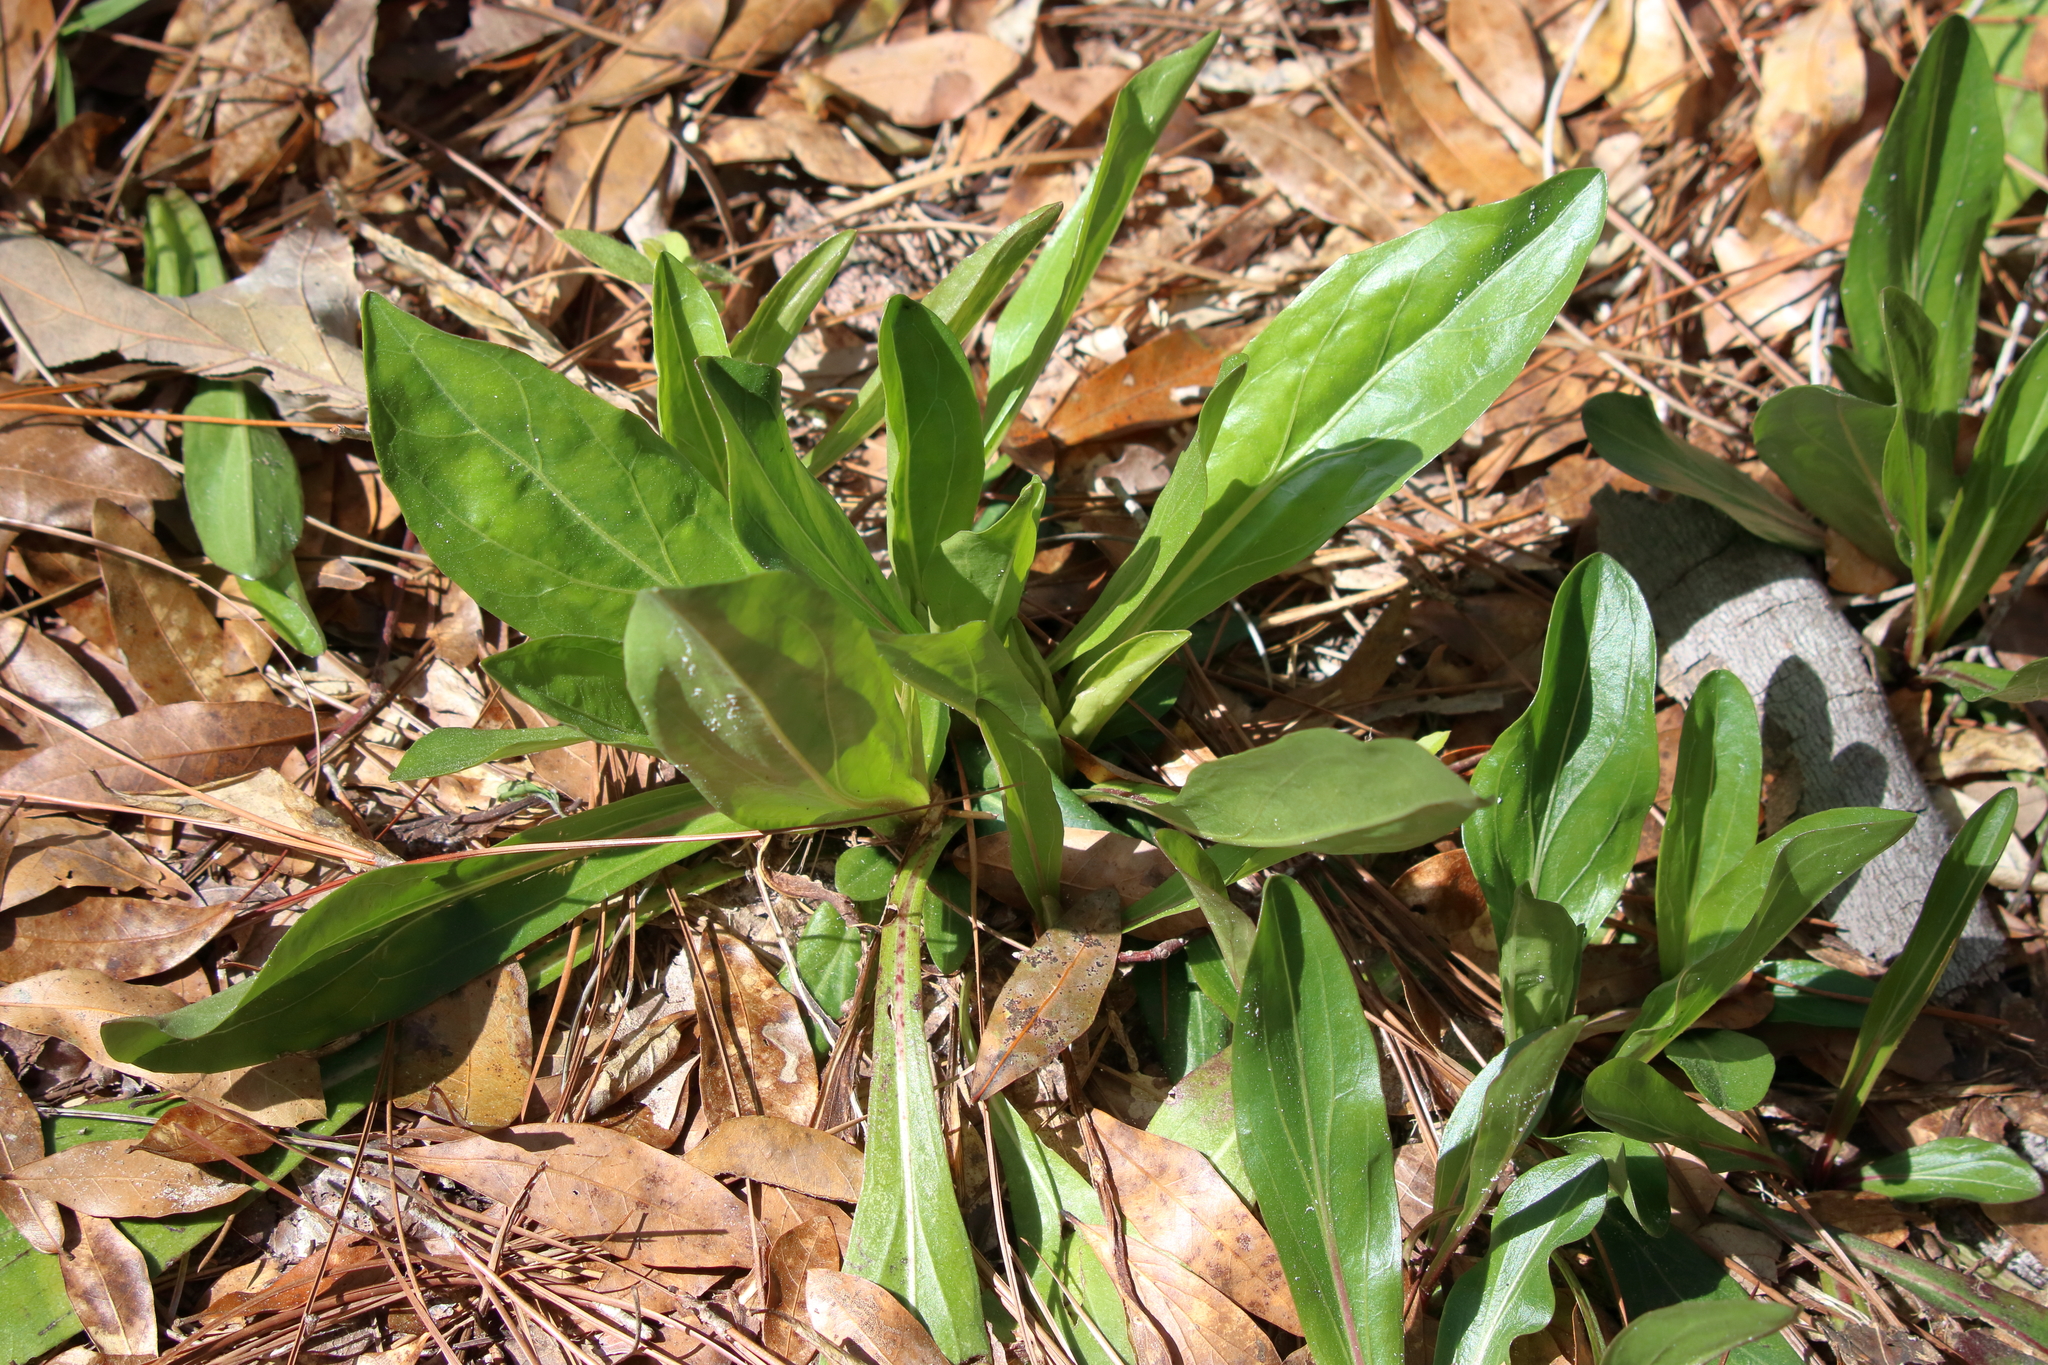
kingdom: Plantae
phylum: Tracheophyta
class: Magnoliopsida
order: Asterales
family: Asteraceae
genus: Carphephorus
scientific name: Carphephorus odoratissimus
